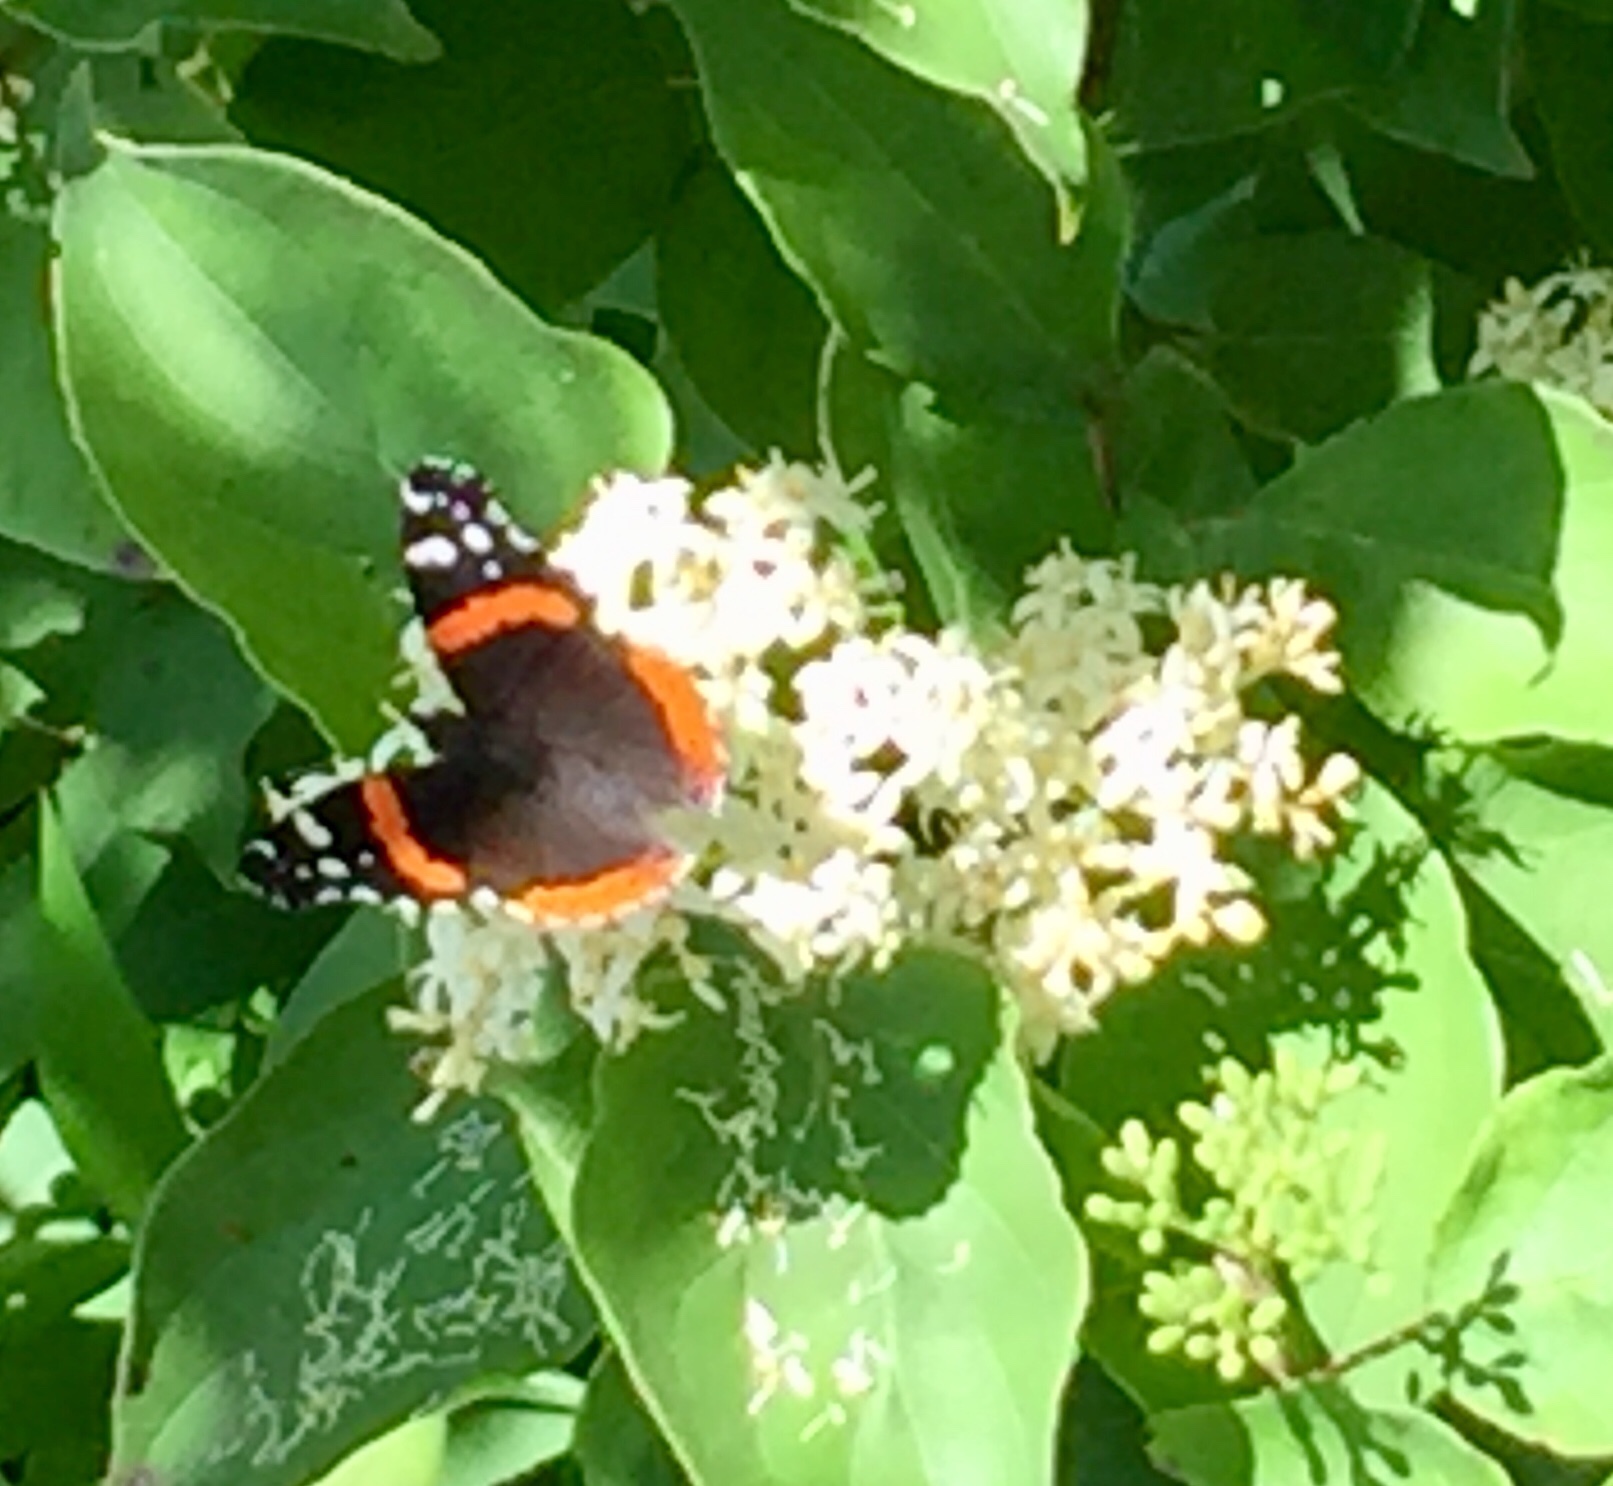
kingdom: Animalia
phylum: Arthropoda
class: Insecta
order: Lepidoptera
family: Nymphalidae
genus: Vanessa
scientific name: Vanessa atalanta
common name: Red admiral
